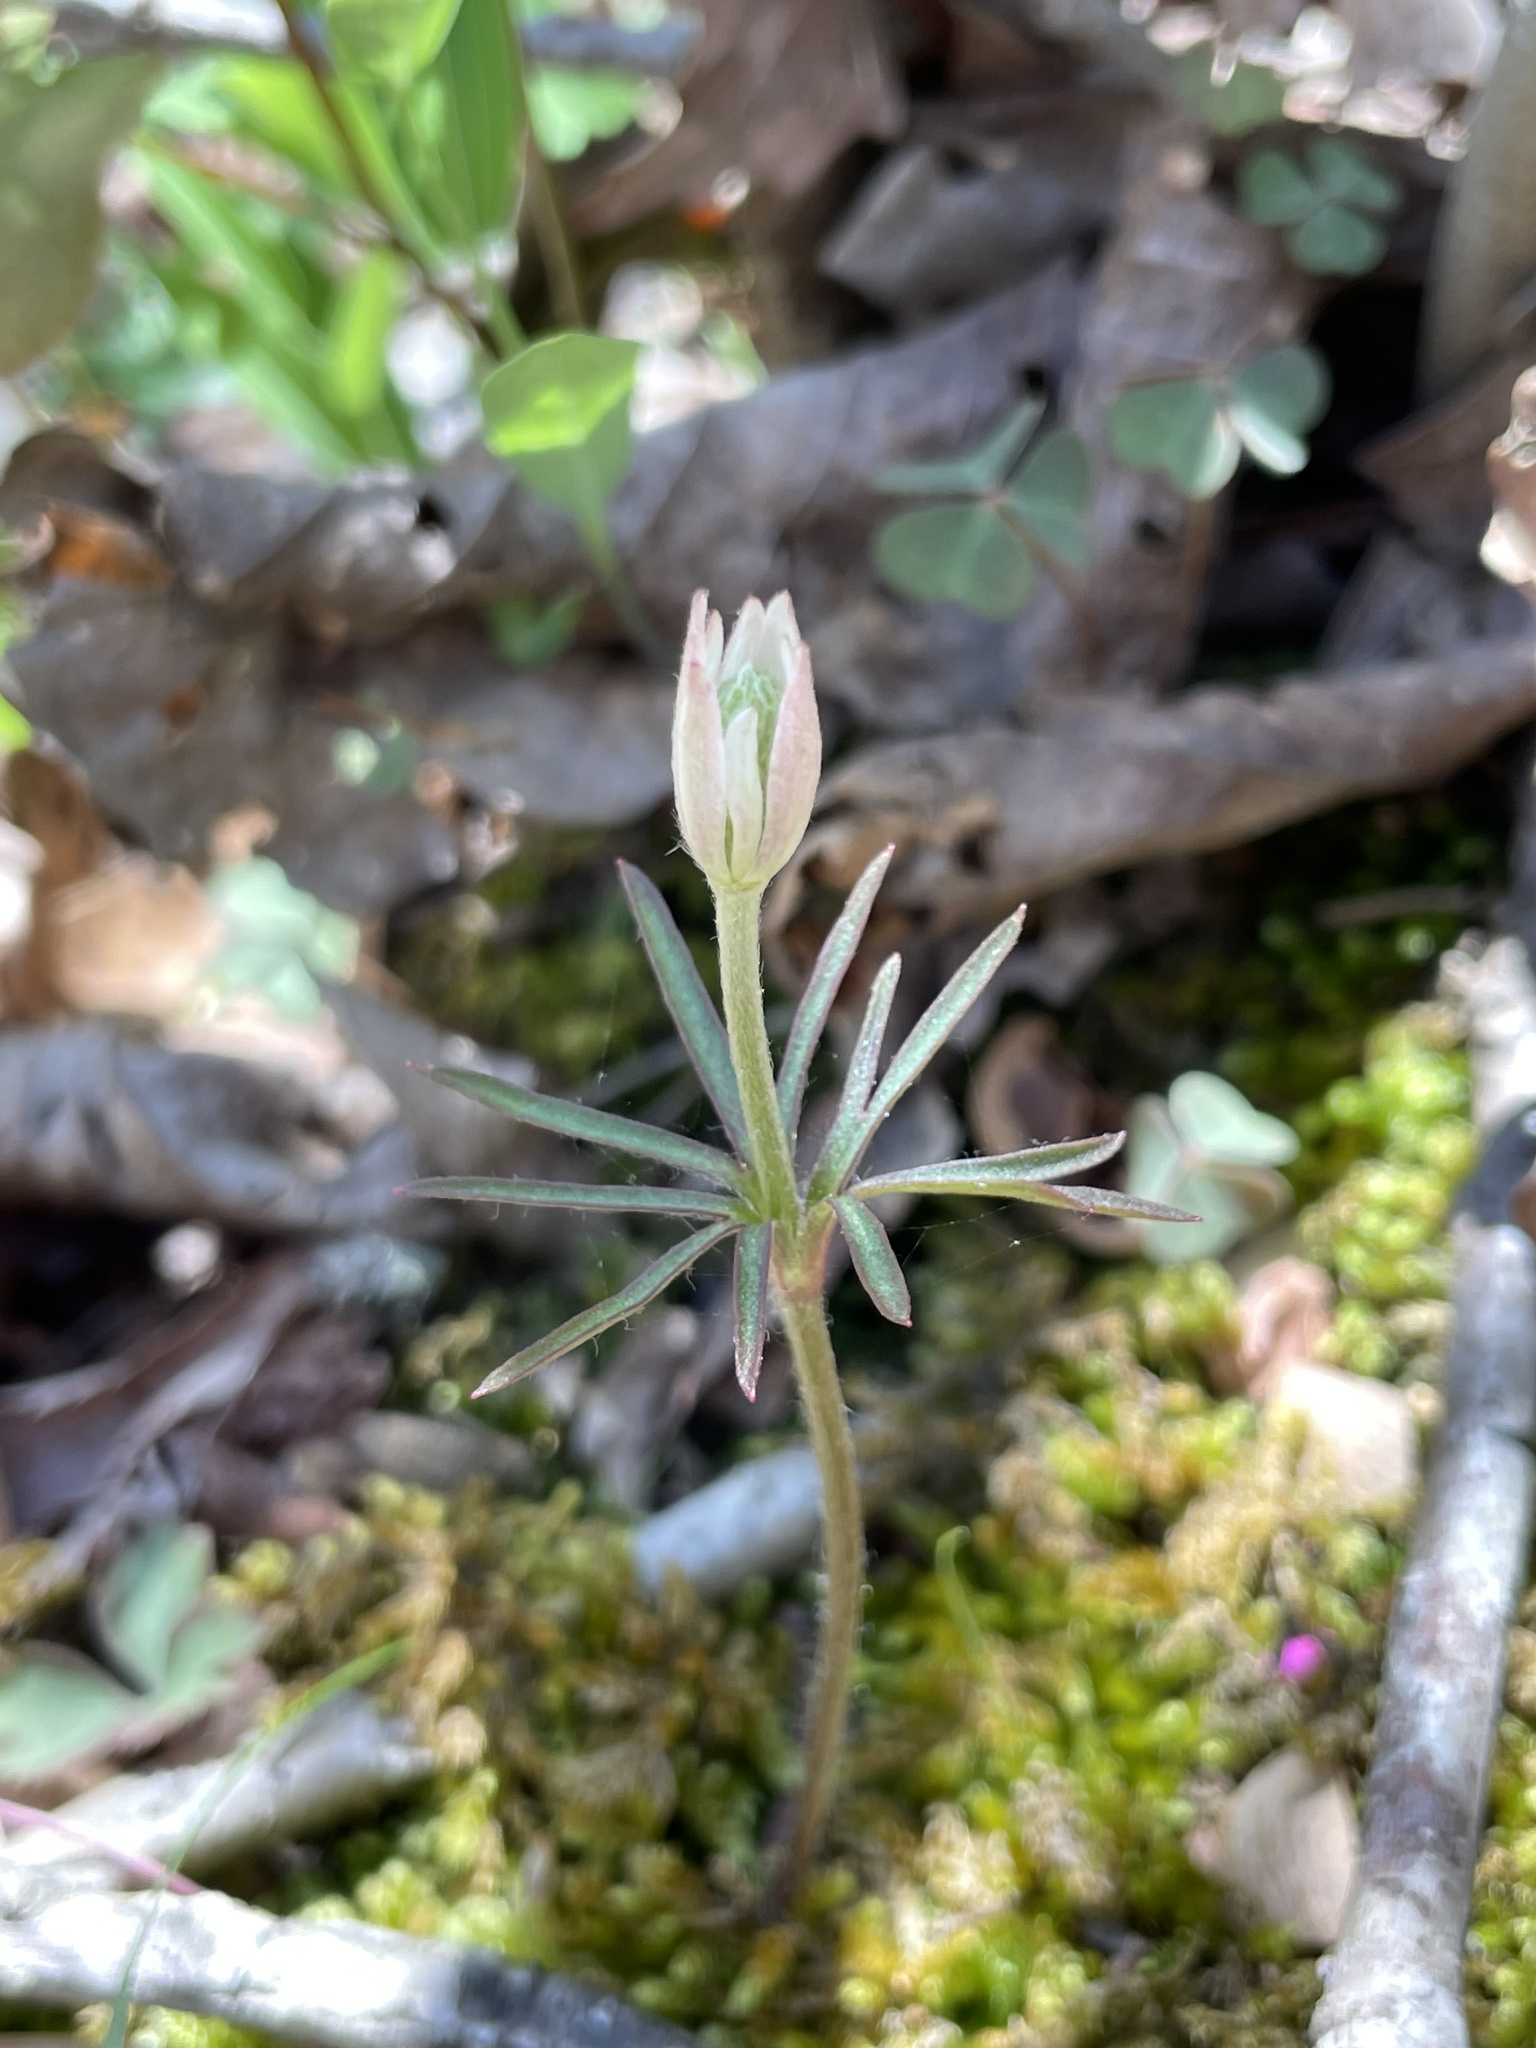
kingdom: Plantae
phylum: Tracheophyta
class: Magnoliopsida
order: Ranunculales
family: Ranunculaceae
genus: Anemone
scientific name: Anemone berlandieri
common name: Ten-petal anemone
